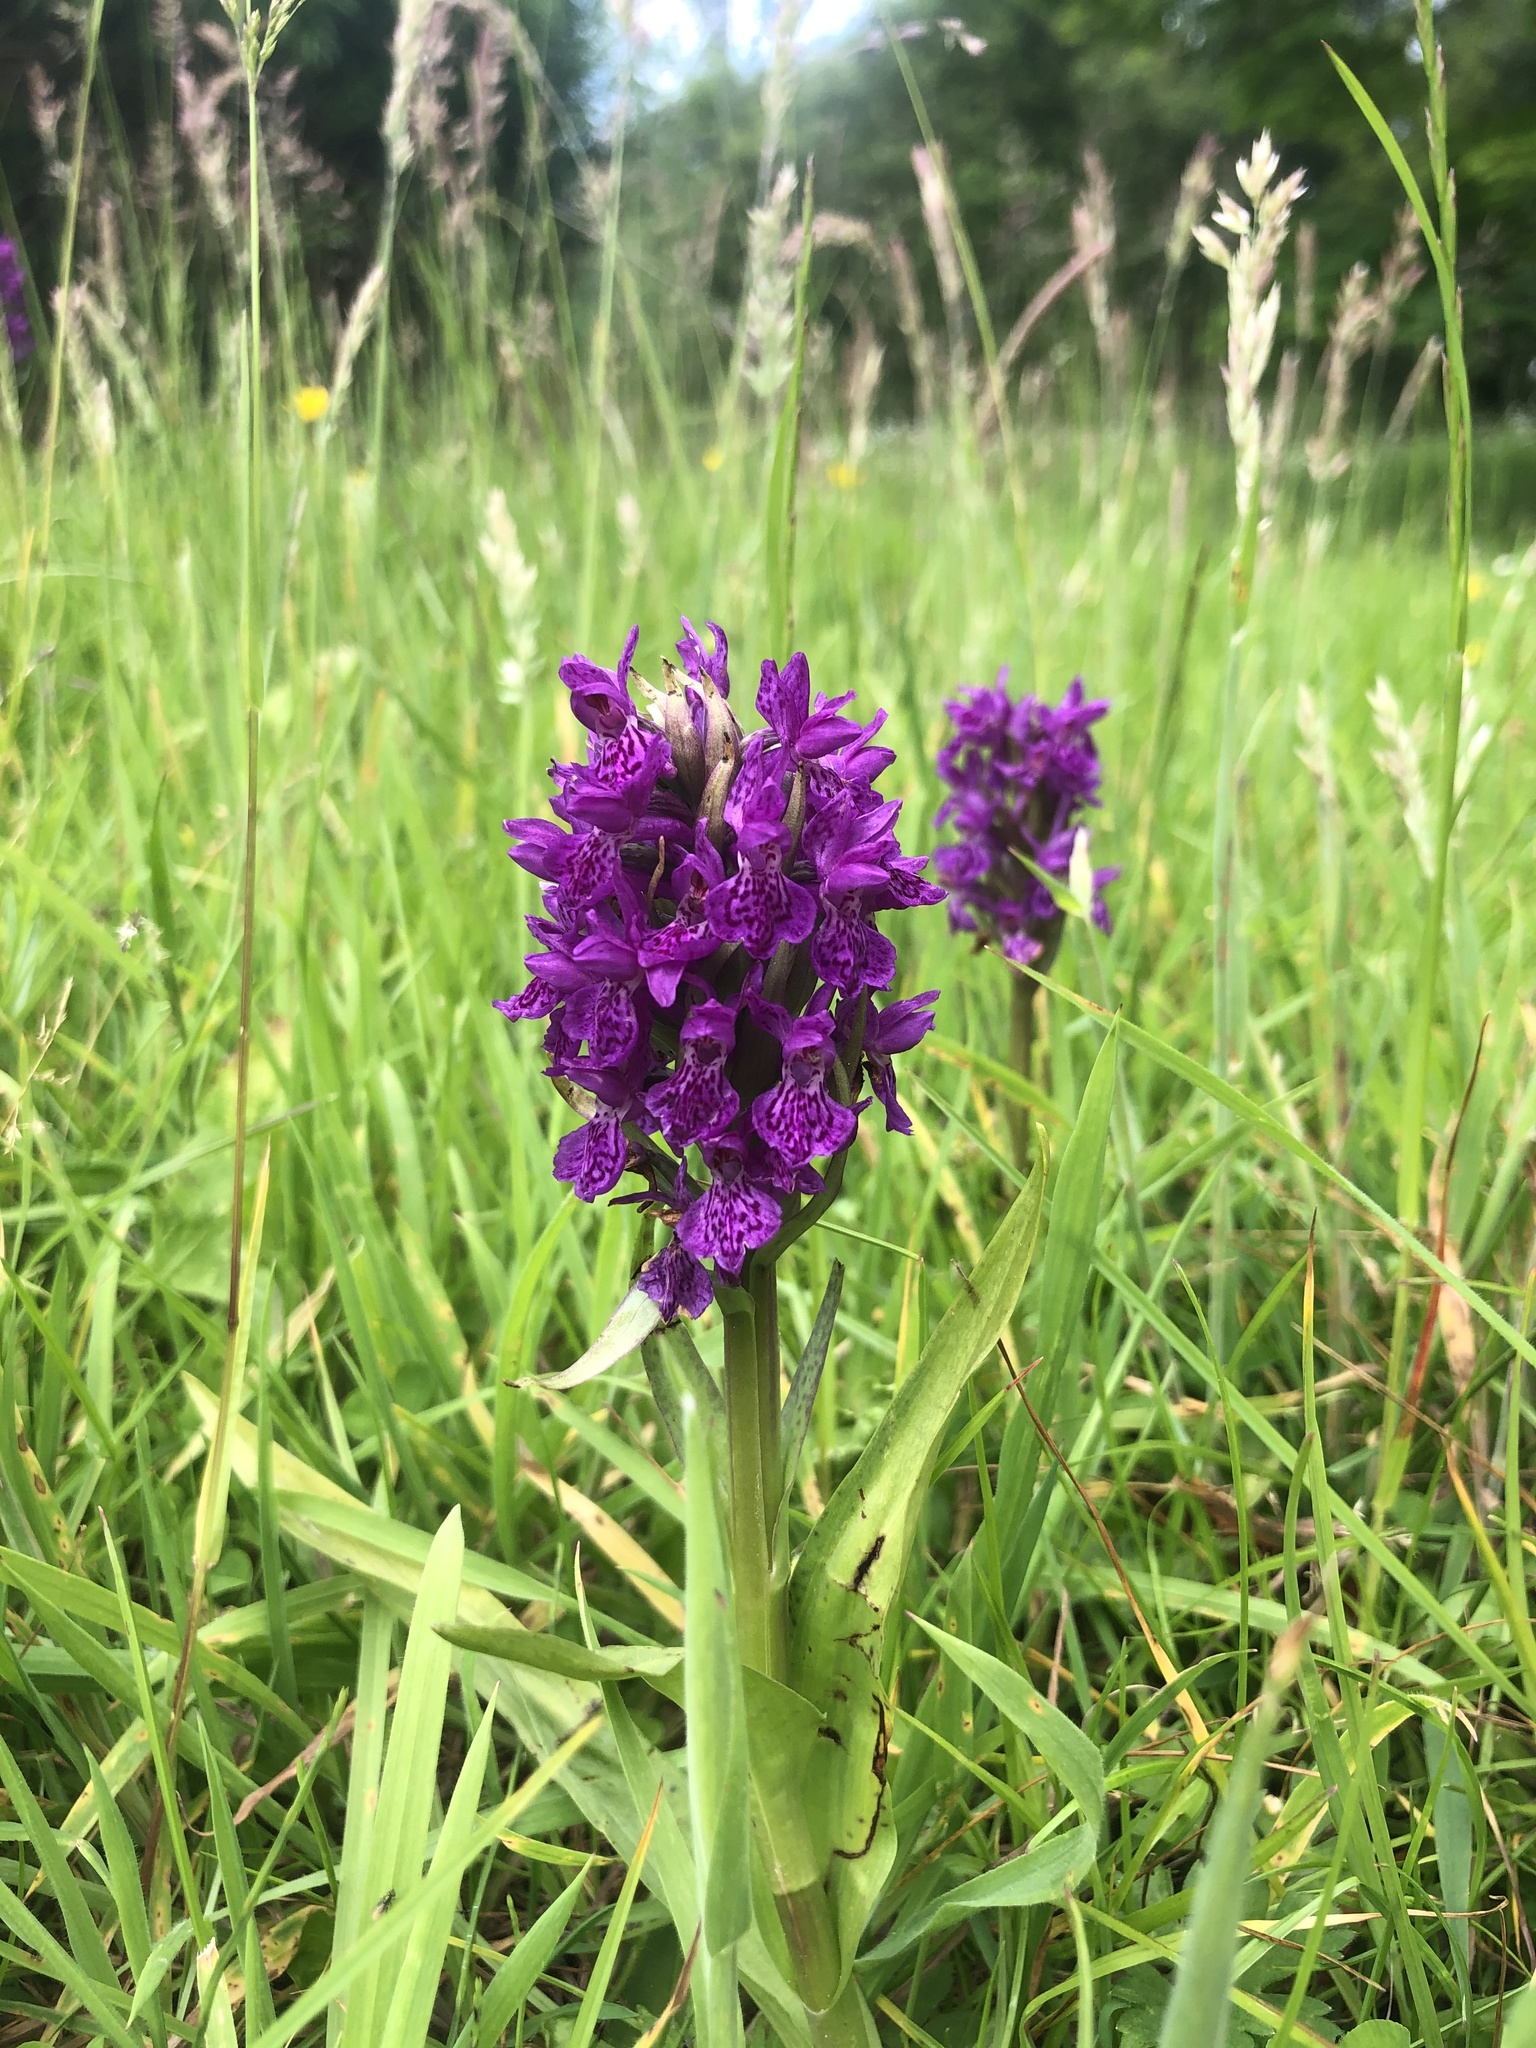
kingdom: Plantae
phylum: Tracheophyta
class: Liliopsida
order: Asparagales
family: Orchidaceae
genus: Dactylorhiza
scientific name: Dactylorhiza majalis
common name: Marsh orchid
